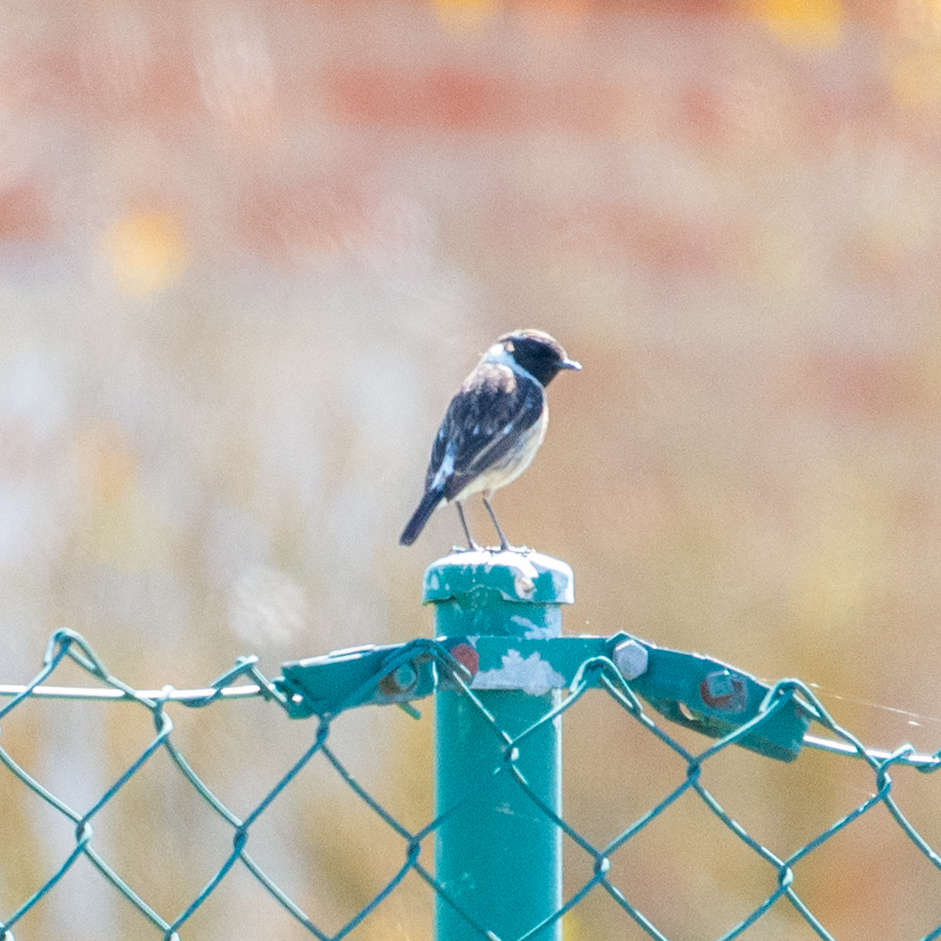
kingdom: Animalia
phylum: Chordata
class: Aves
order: Passeriformes
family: Muscicapidae
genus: Saxicola
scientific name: Saxicola rubicola
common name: European stonechat
